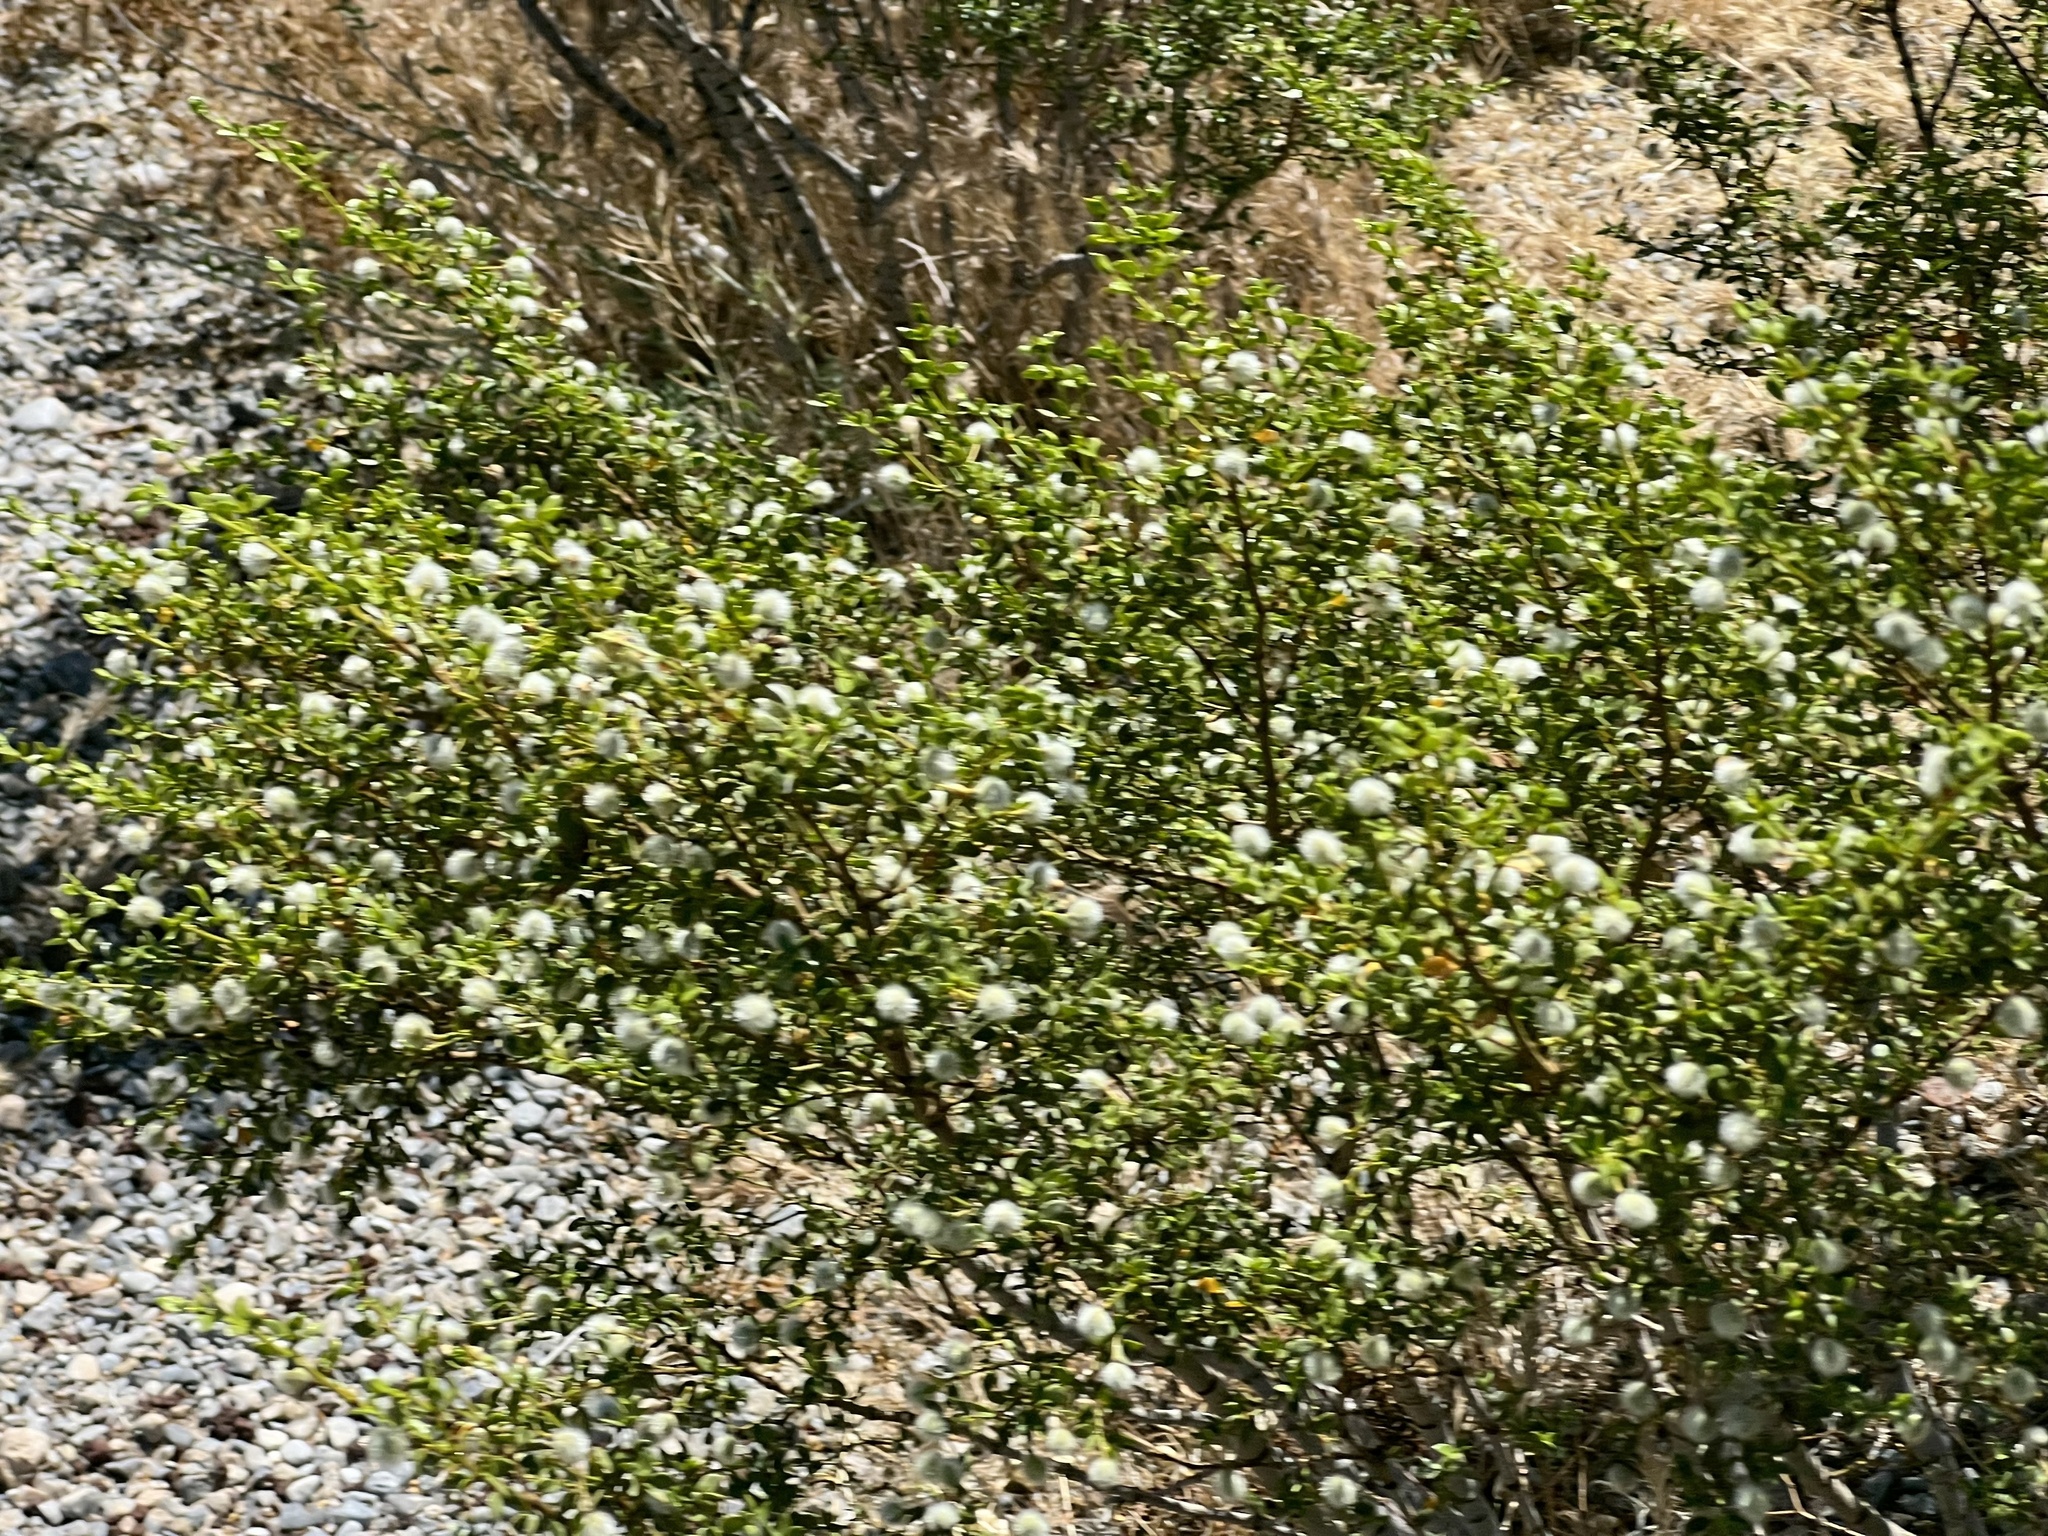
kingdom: Plantae
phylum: Tracheophyta
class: Magnoliopsida
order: Zygophyllales
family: Zygophyllaceae
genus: Larrea
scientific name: Larrea tridentata
